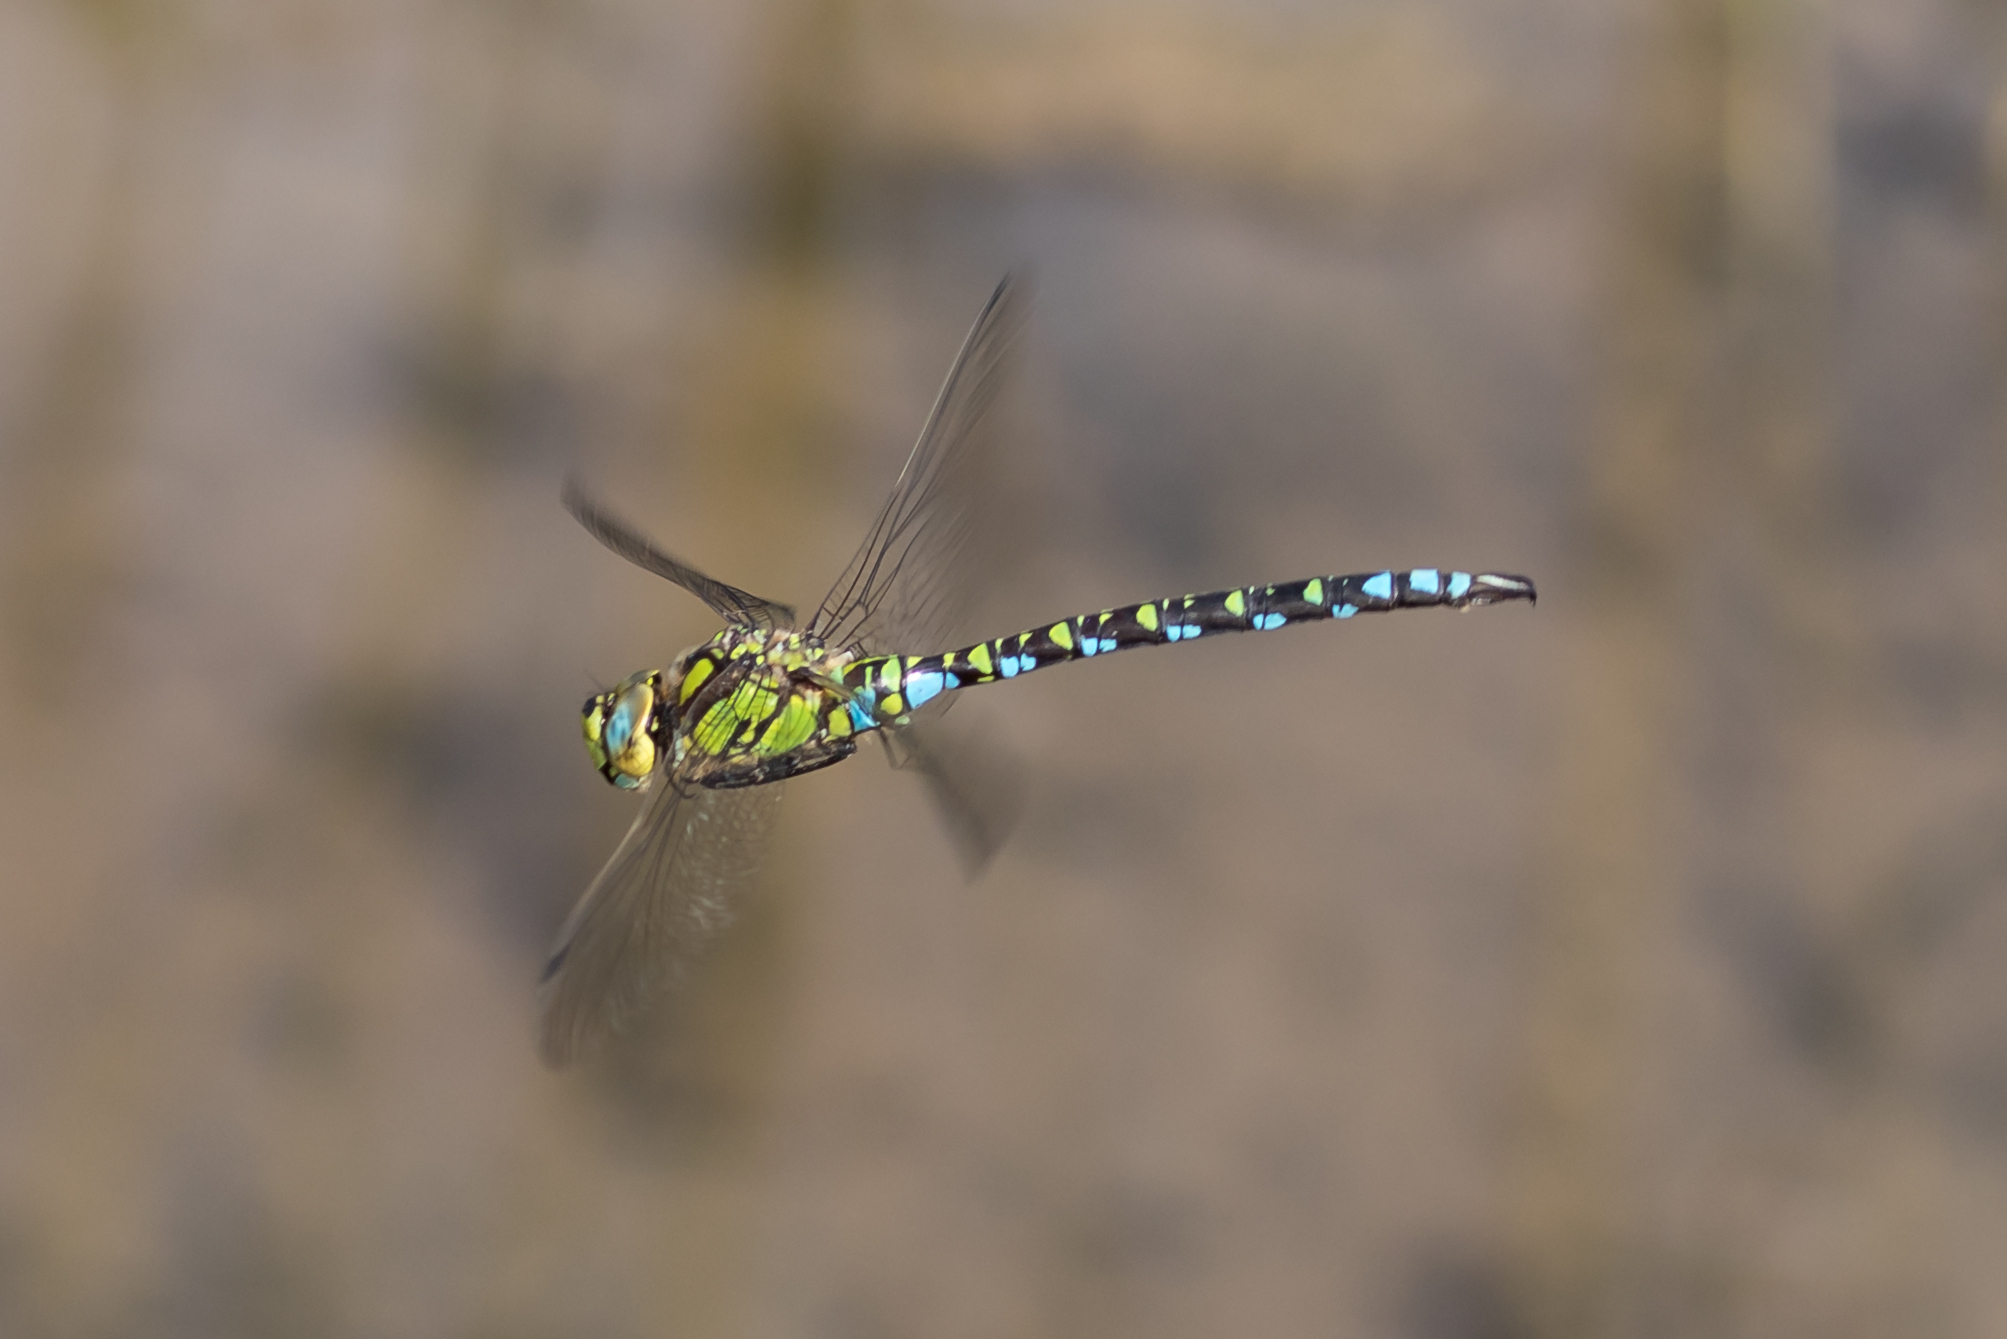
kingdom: Animalia
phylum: Arthropoda
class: Insecta
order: Odonata
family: Aeshnidae
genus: Aeshna
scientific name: Aeshna cyanea
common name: Southern hawker
